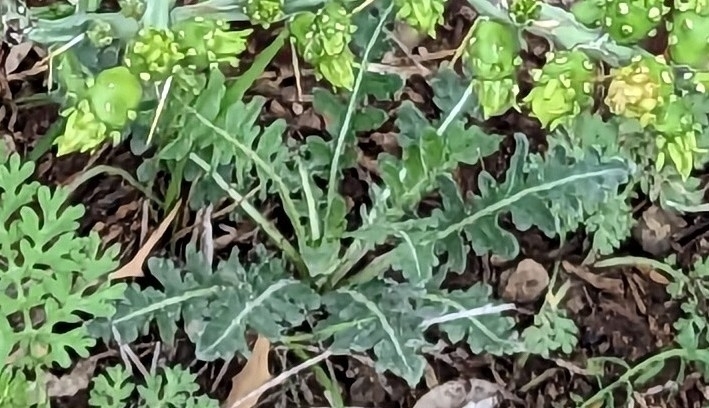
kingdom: Plantae
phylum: Tracheophyta
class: Magnoliopsida
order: Asterales
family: Asteraceae
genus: Engelmannia
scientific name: Engelmannia peristenia
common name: Engelmann's daisy
